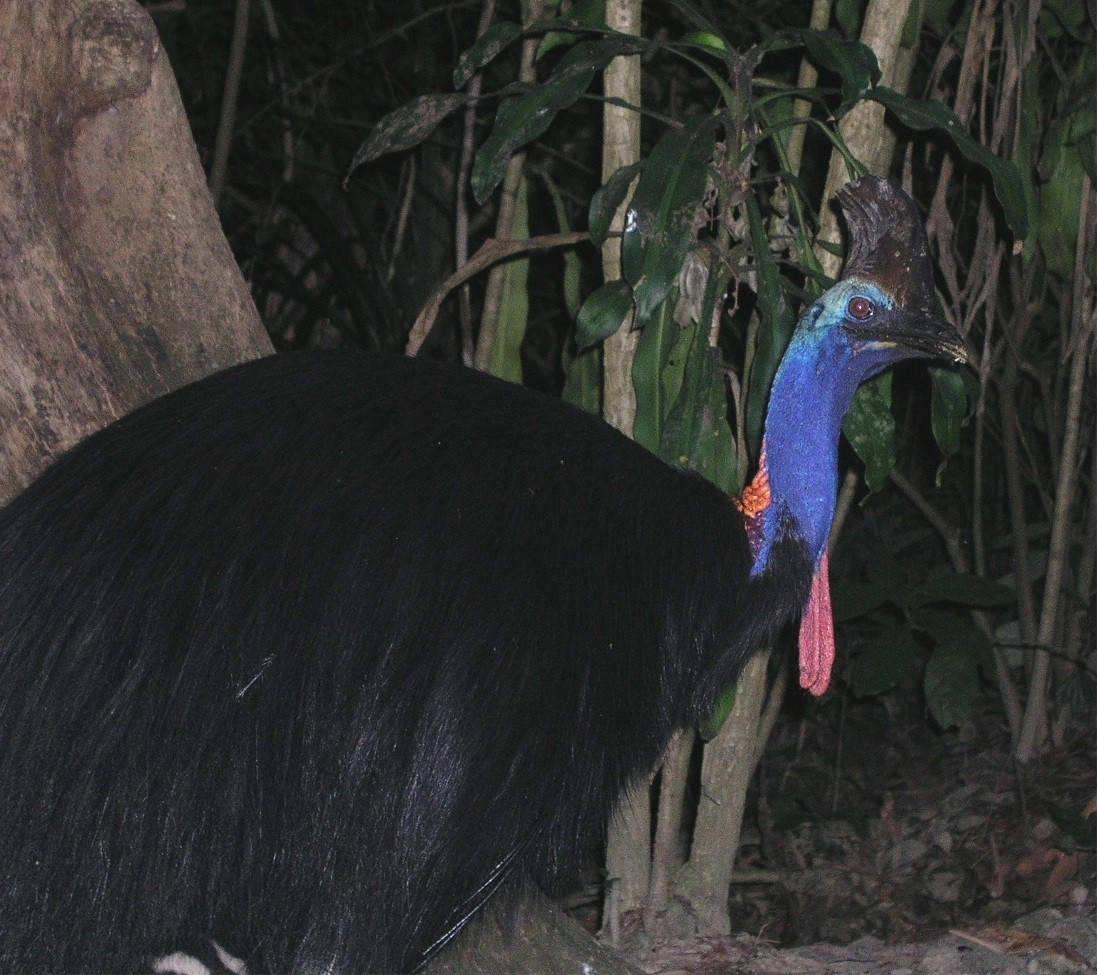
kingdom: Animalia
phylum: Chordata
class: Aves
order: Casuariiformes
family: Casuariidae
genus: Casuarius
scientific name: Casuarius casuarius
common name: Southern cassowary
